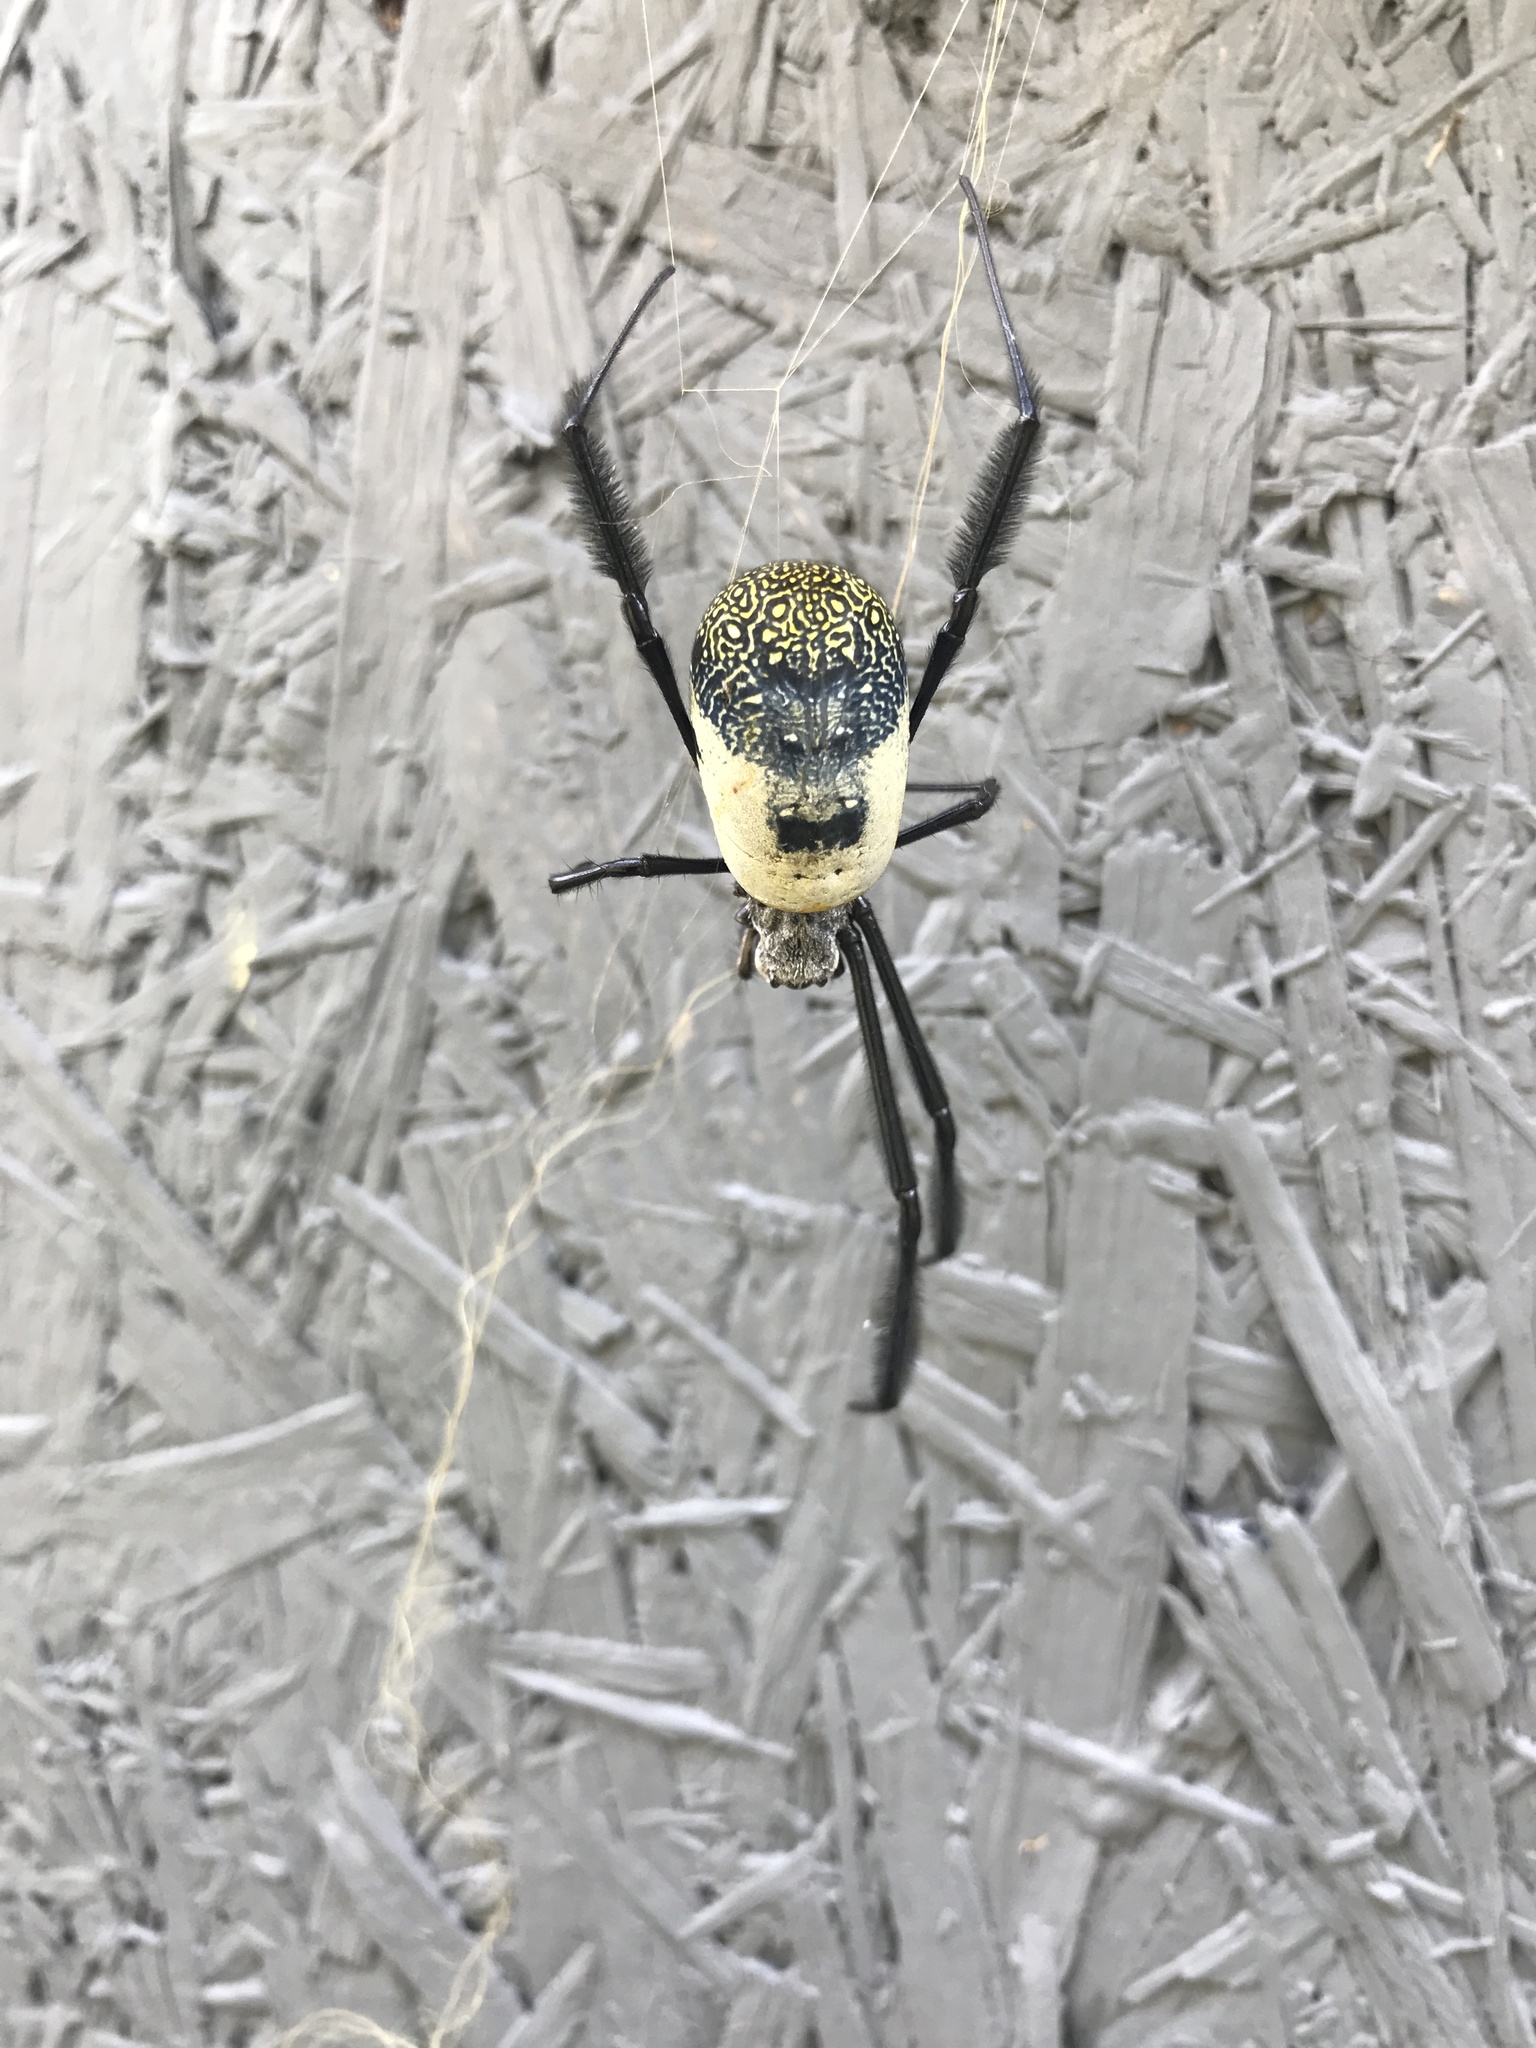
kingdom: Animalia
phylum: Arthropoda
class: Arachnida
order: Araneae
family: Araneidae
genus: Trichonephila
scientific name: Trichonephila fenestrata
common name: Hairy golden orb weaver
